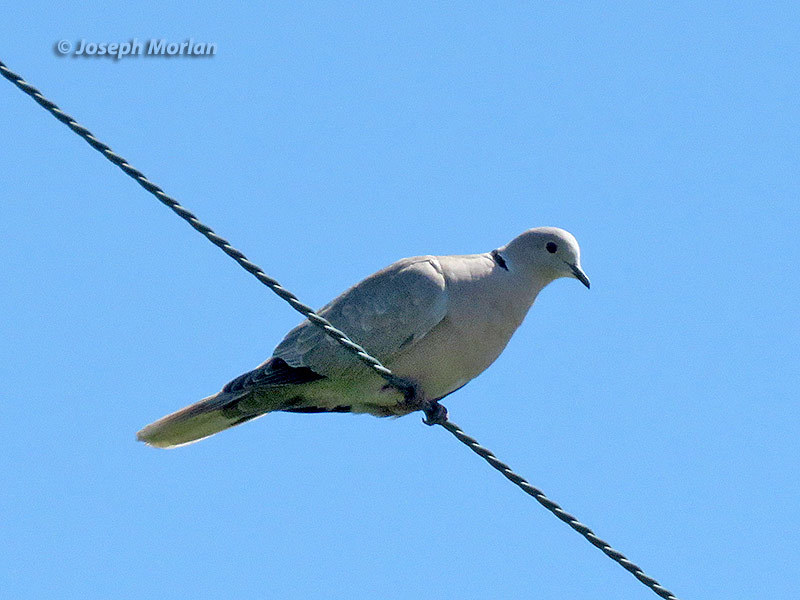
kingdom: Animalia
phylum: Chordata
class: Aves
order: Columbiformes
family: Columbidae
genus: Streptopelia
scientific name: Streptopelia decaocto
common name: Eurasian collared dove
